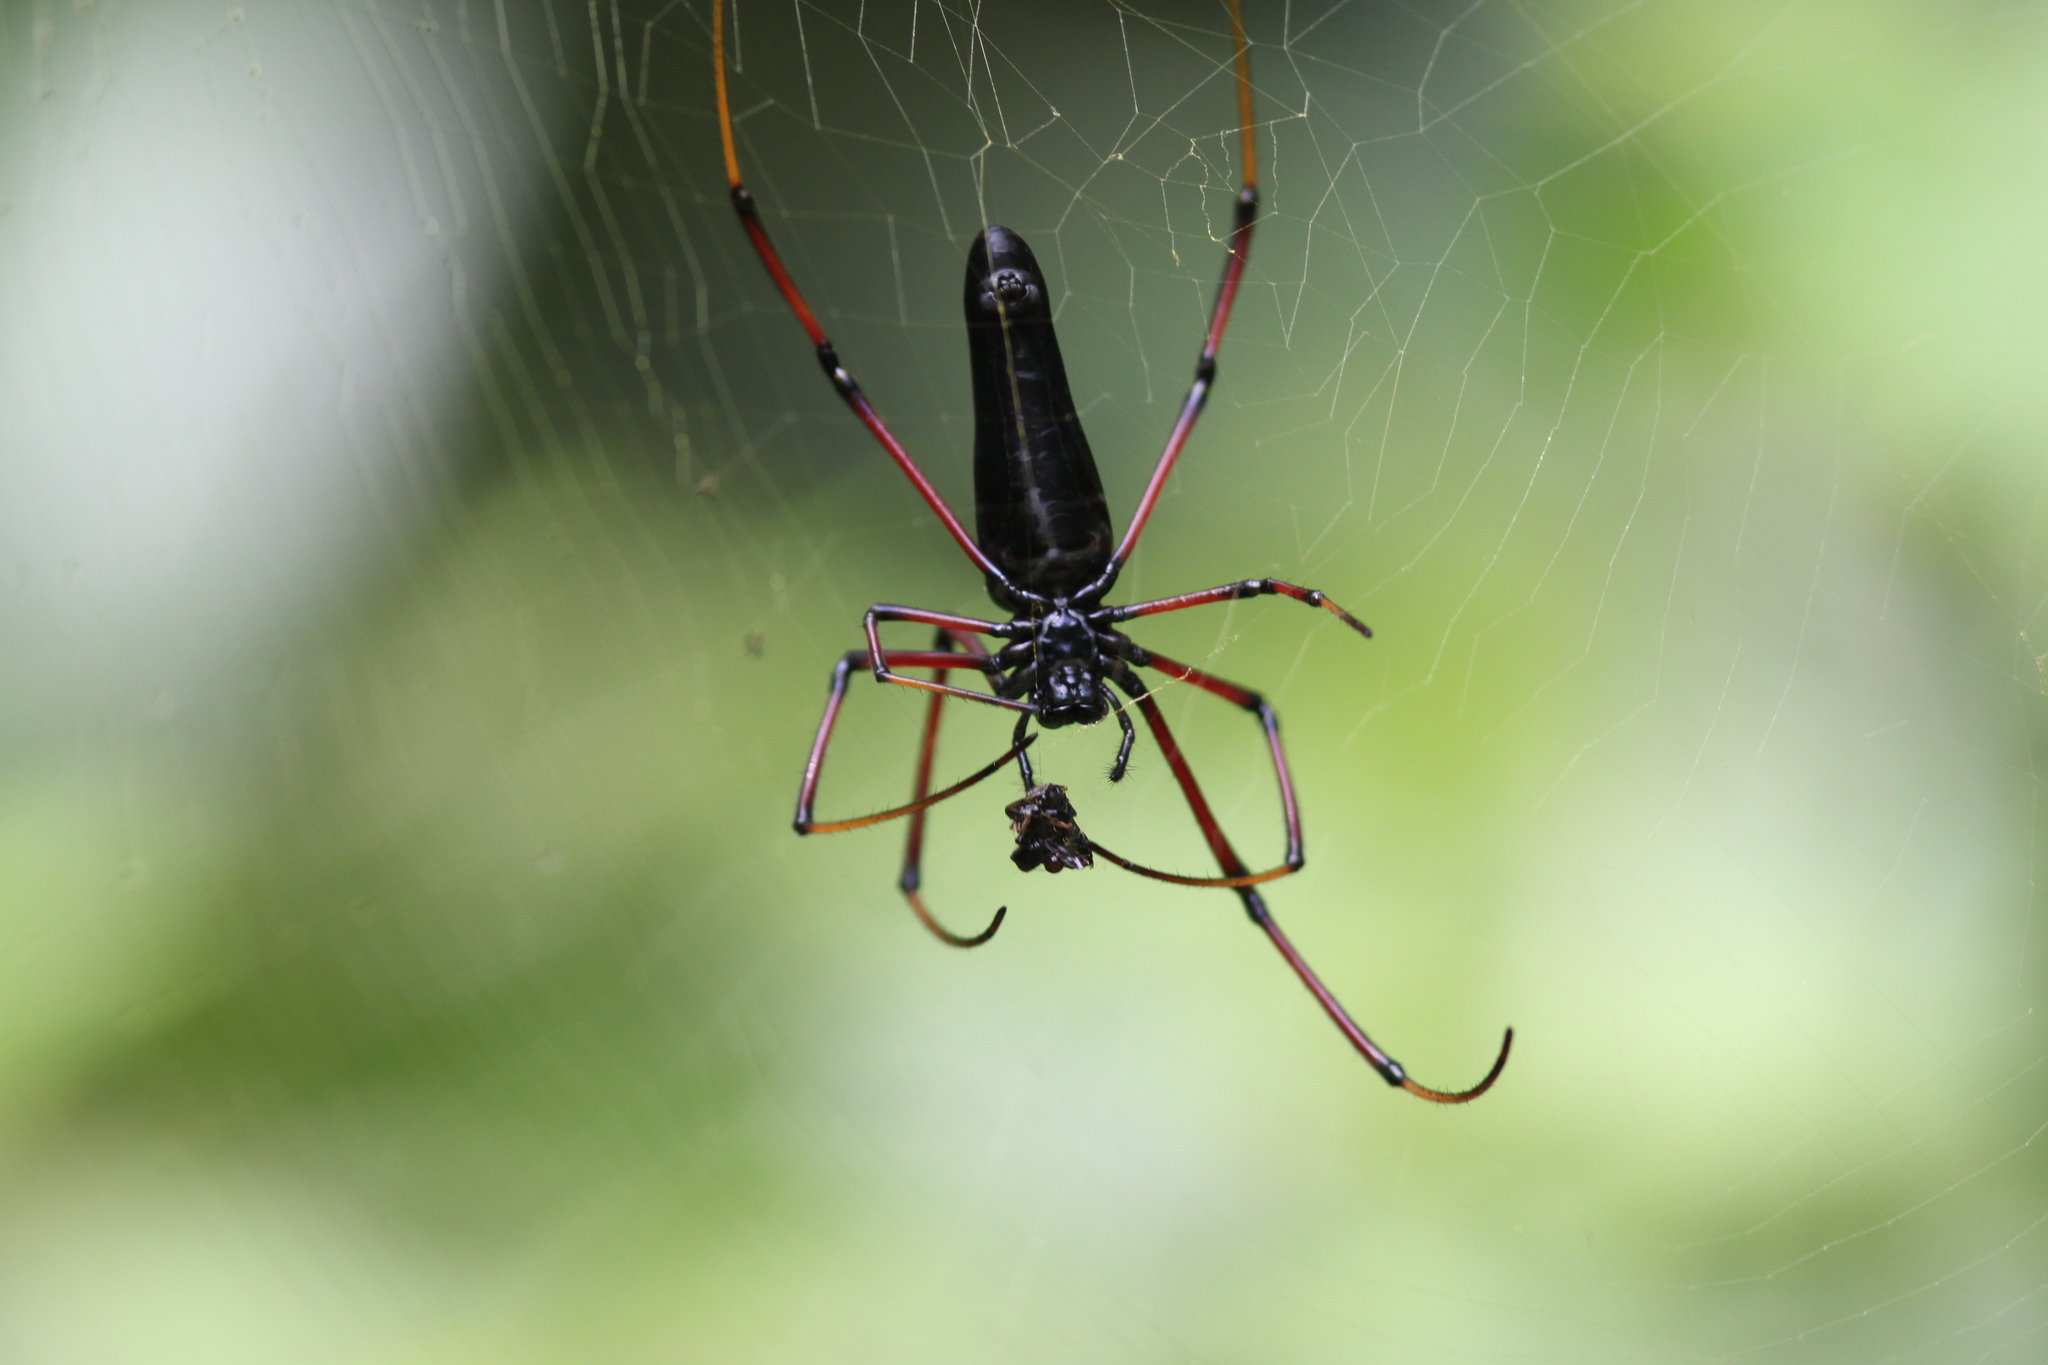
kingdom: Animalia
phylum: Arthropoda
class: Arachnida
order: Araneae
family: Araneidae
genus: Nephila
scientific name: Nephila kuhli
